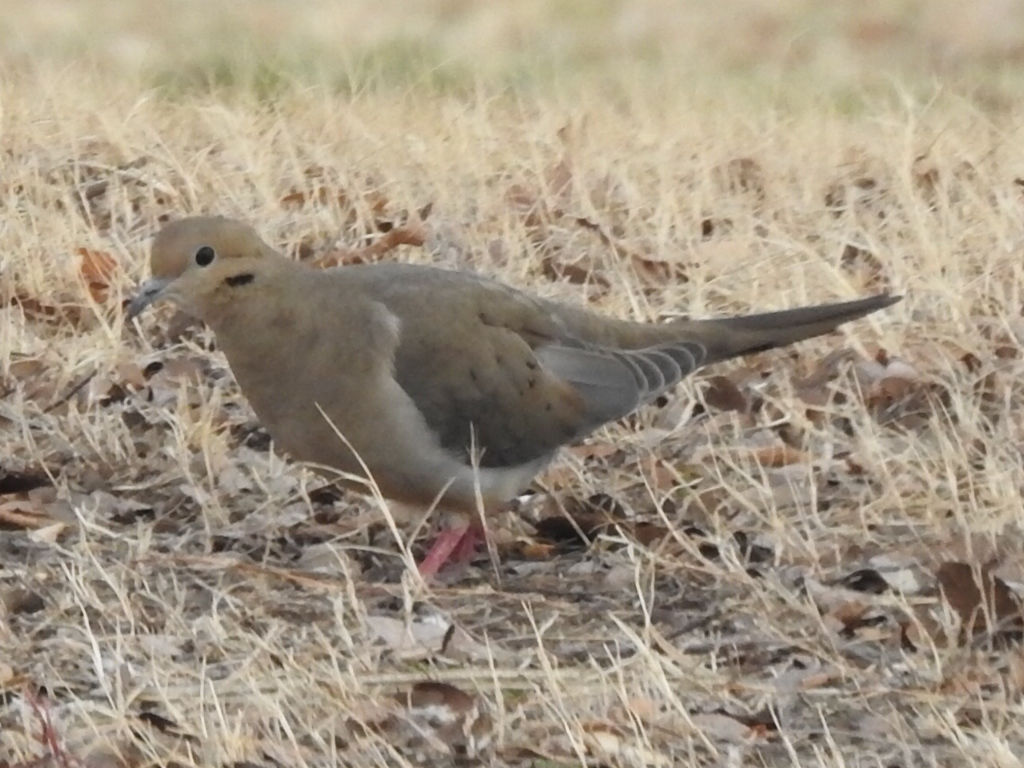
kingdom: Animalia
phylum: Chordata
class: Aves
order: Columbiformes
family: Columbidae
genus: Zenaida
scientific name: Zenaida macroura
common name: Mourning dove
